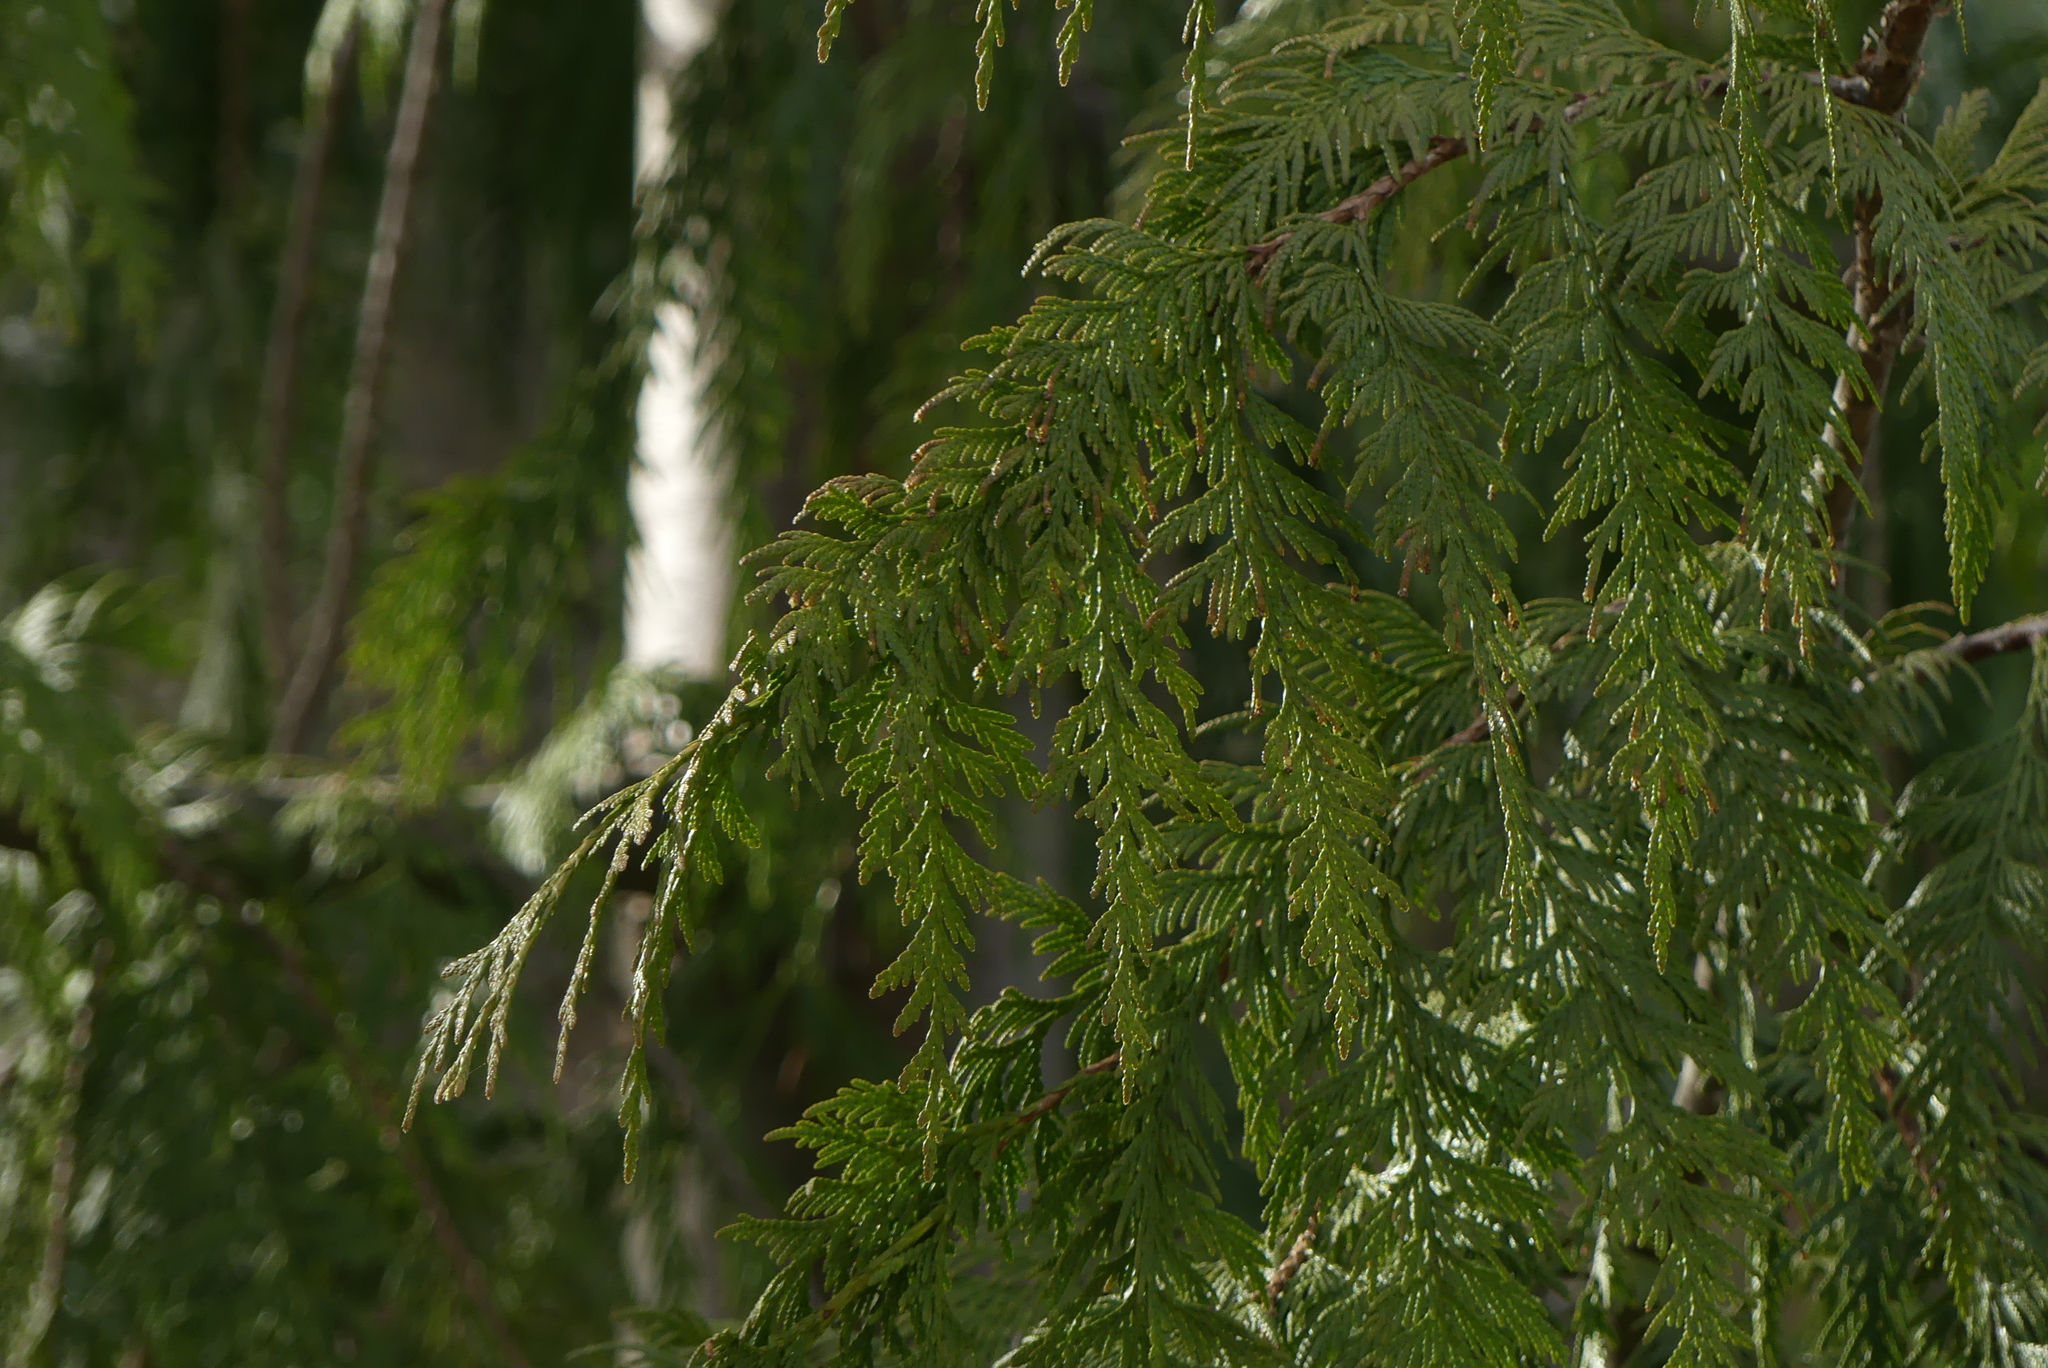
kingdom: Plantae
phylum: Tracheophyta
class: Pinopsida
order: Pinales
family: Cupressaceae
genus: Thuja
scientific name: Thuja plicata
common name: Western red-cedar
